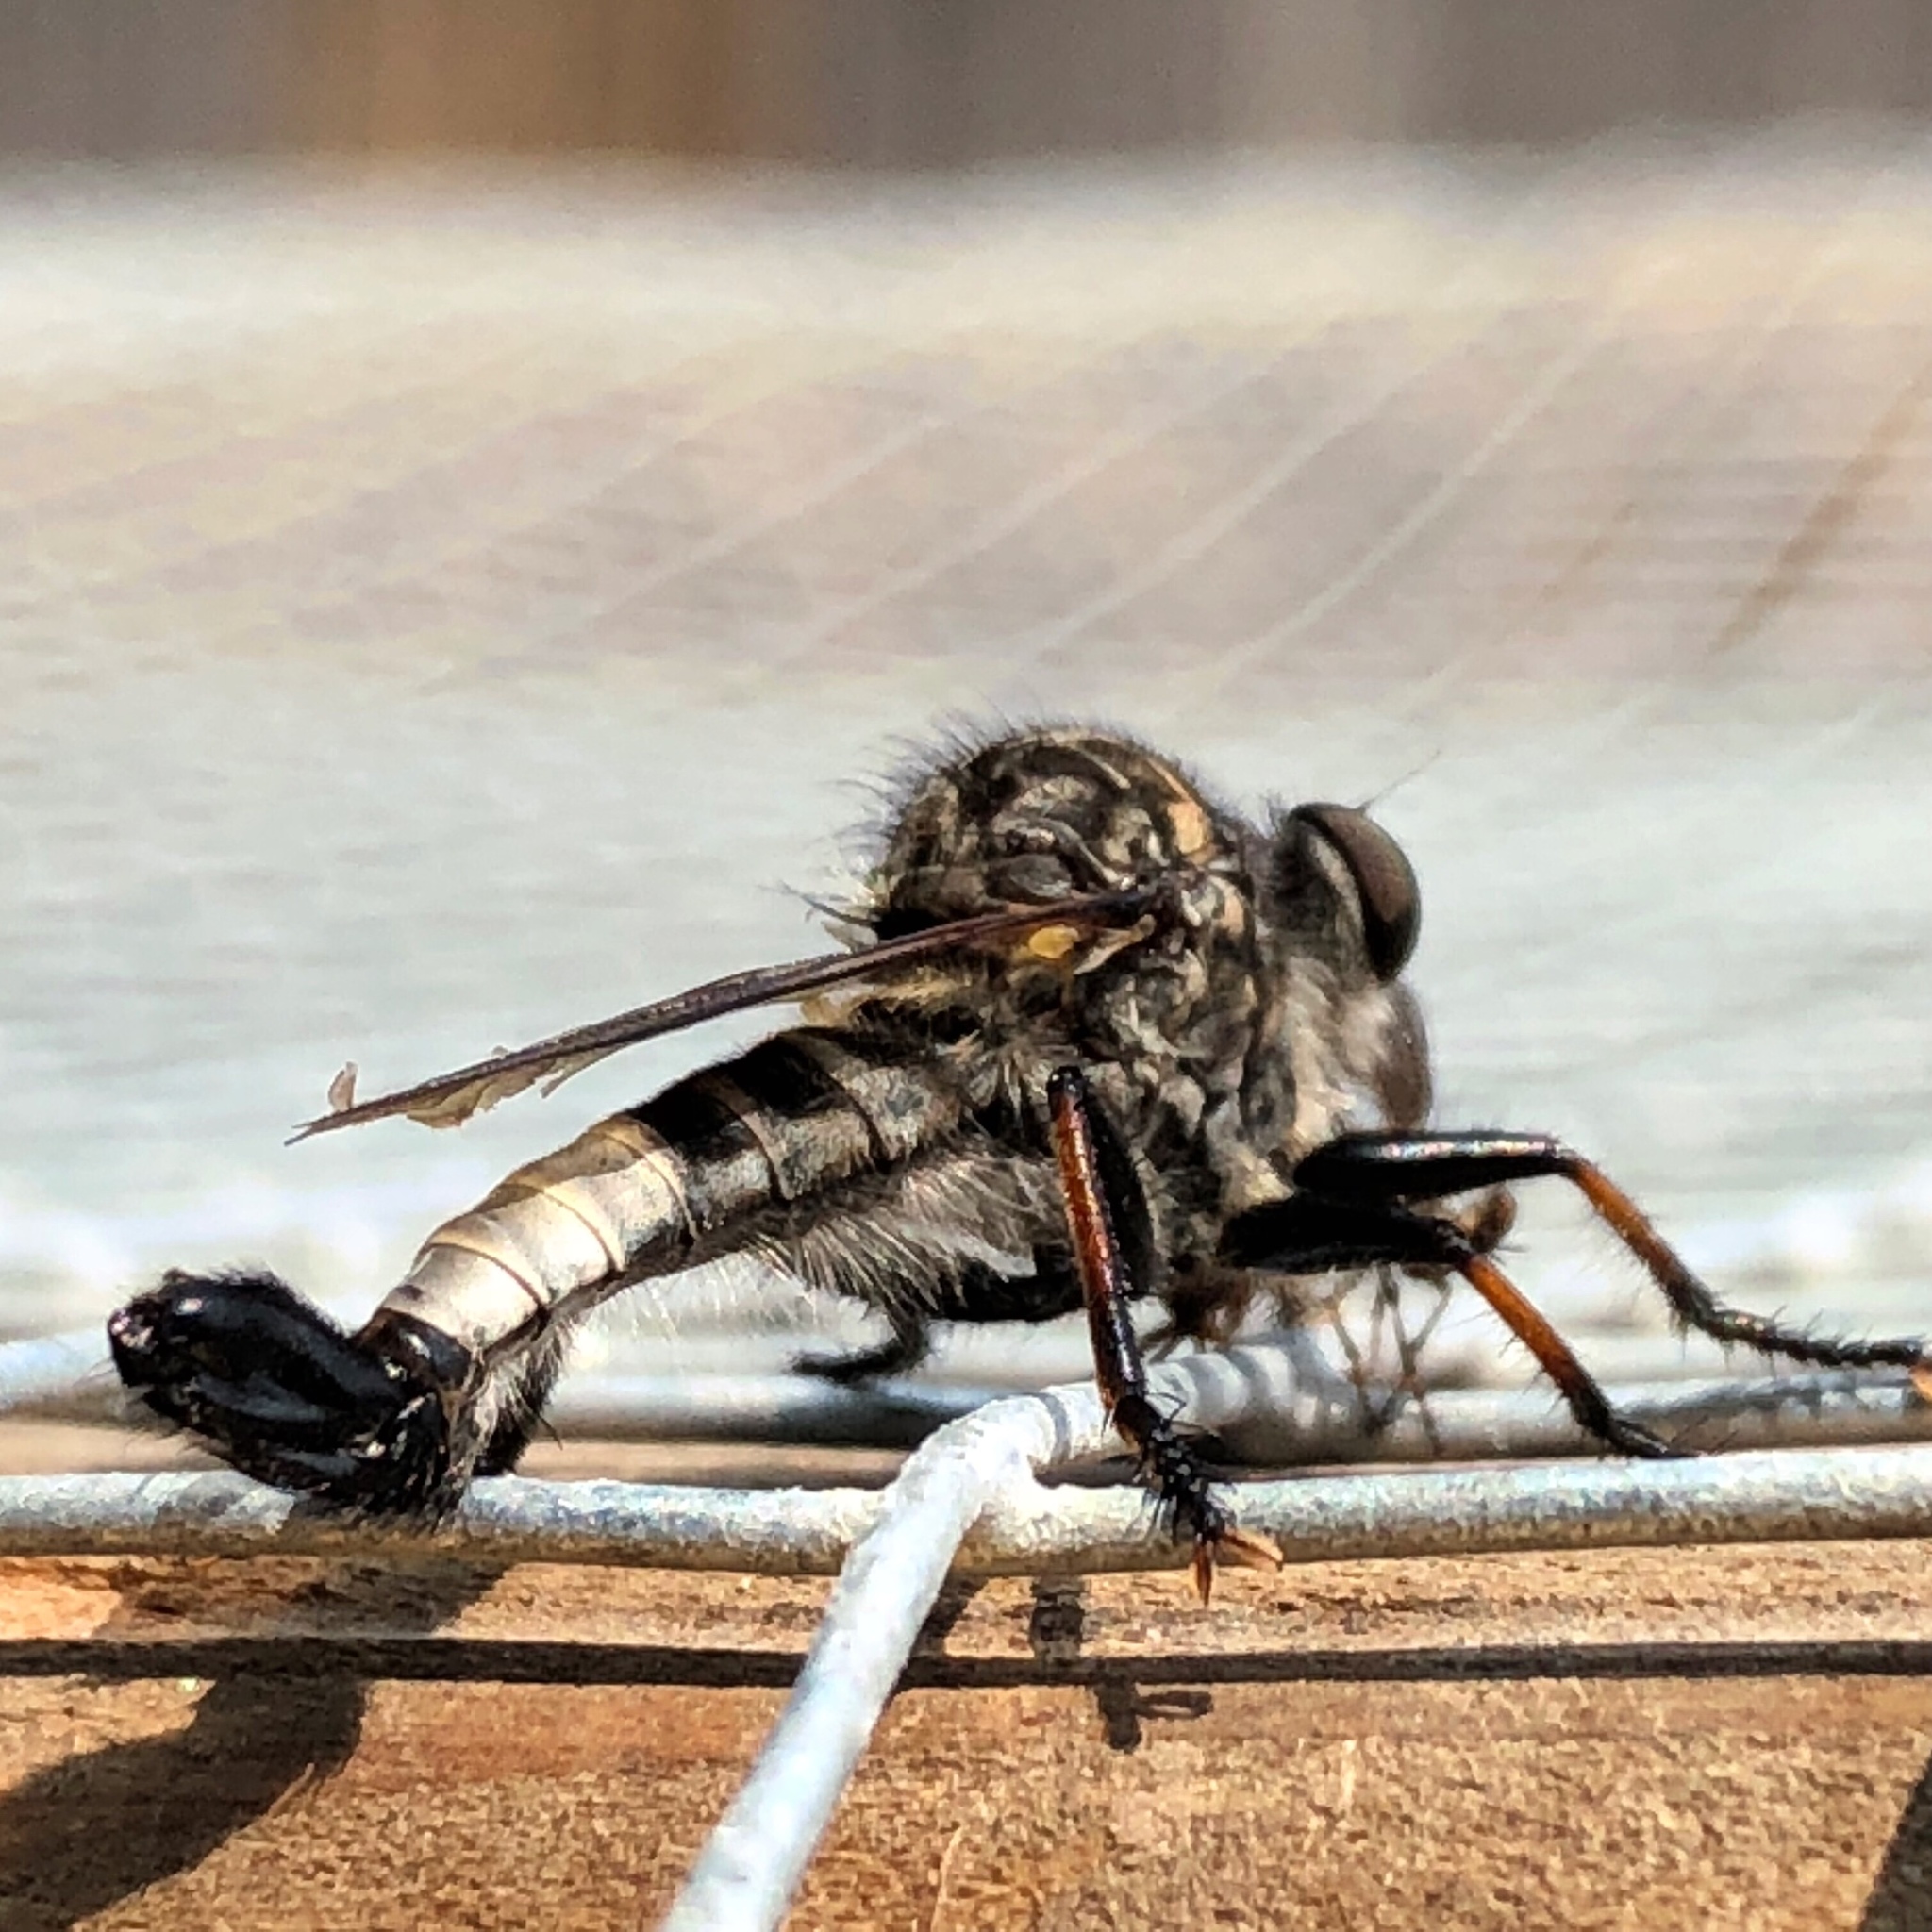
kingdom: Animalia
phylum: Arthropoda
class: Insecta
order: Diptera
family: Asilidae
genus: Efferia
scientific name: Efferia aestuans
